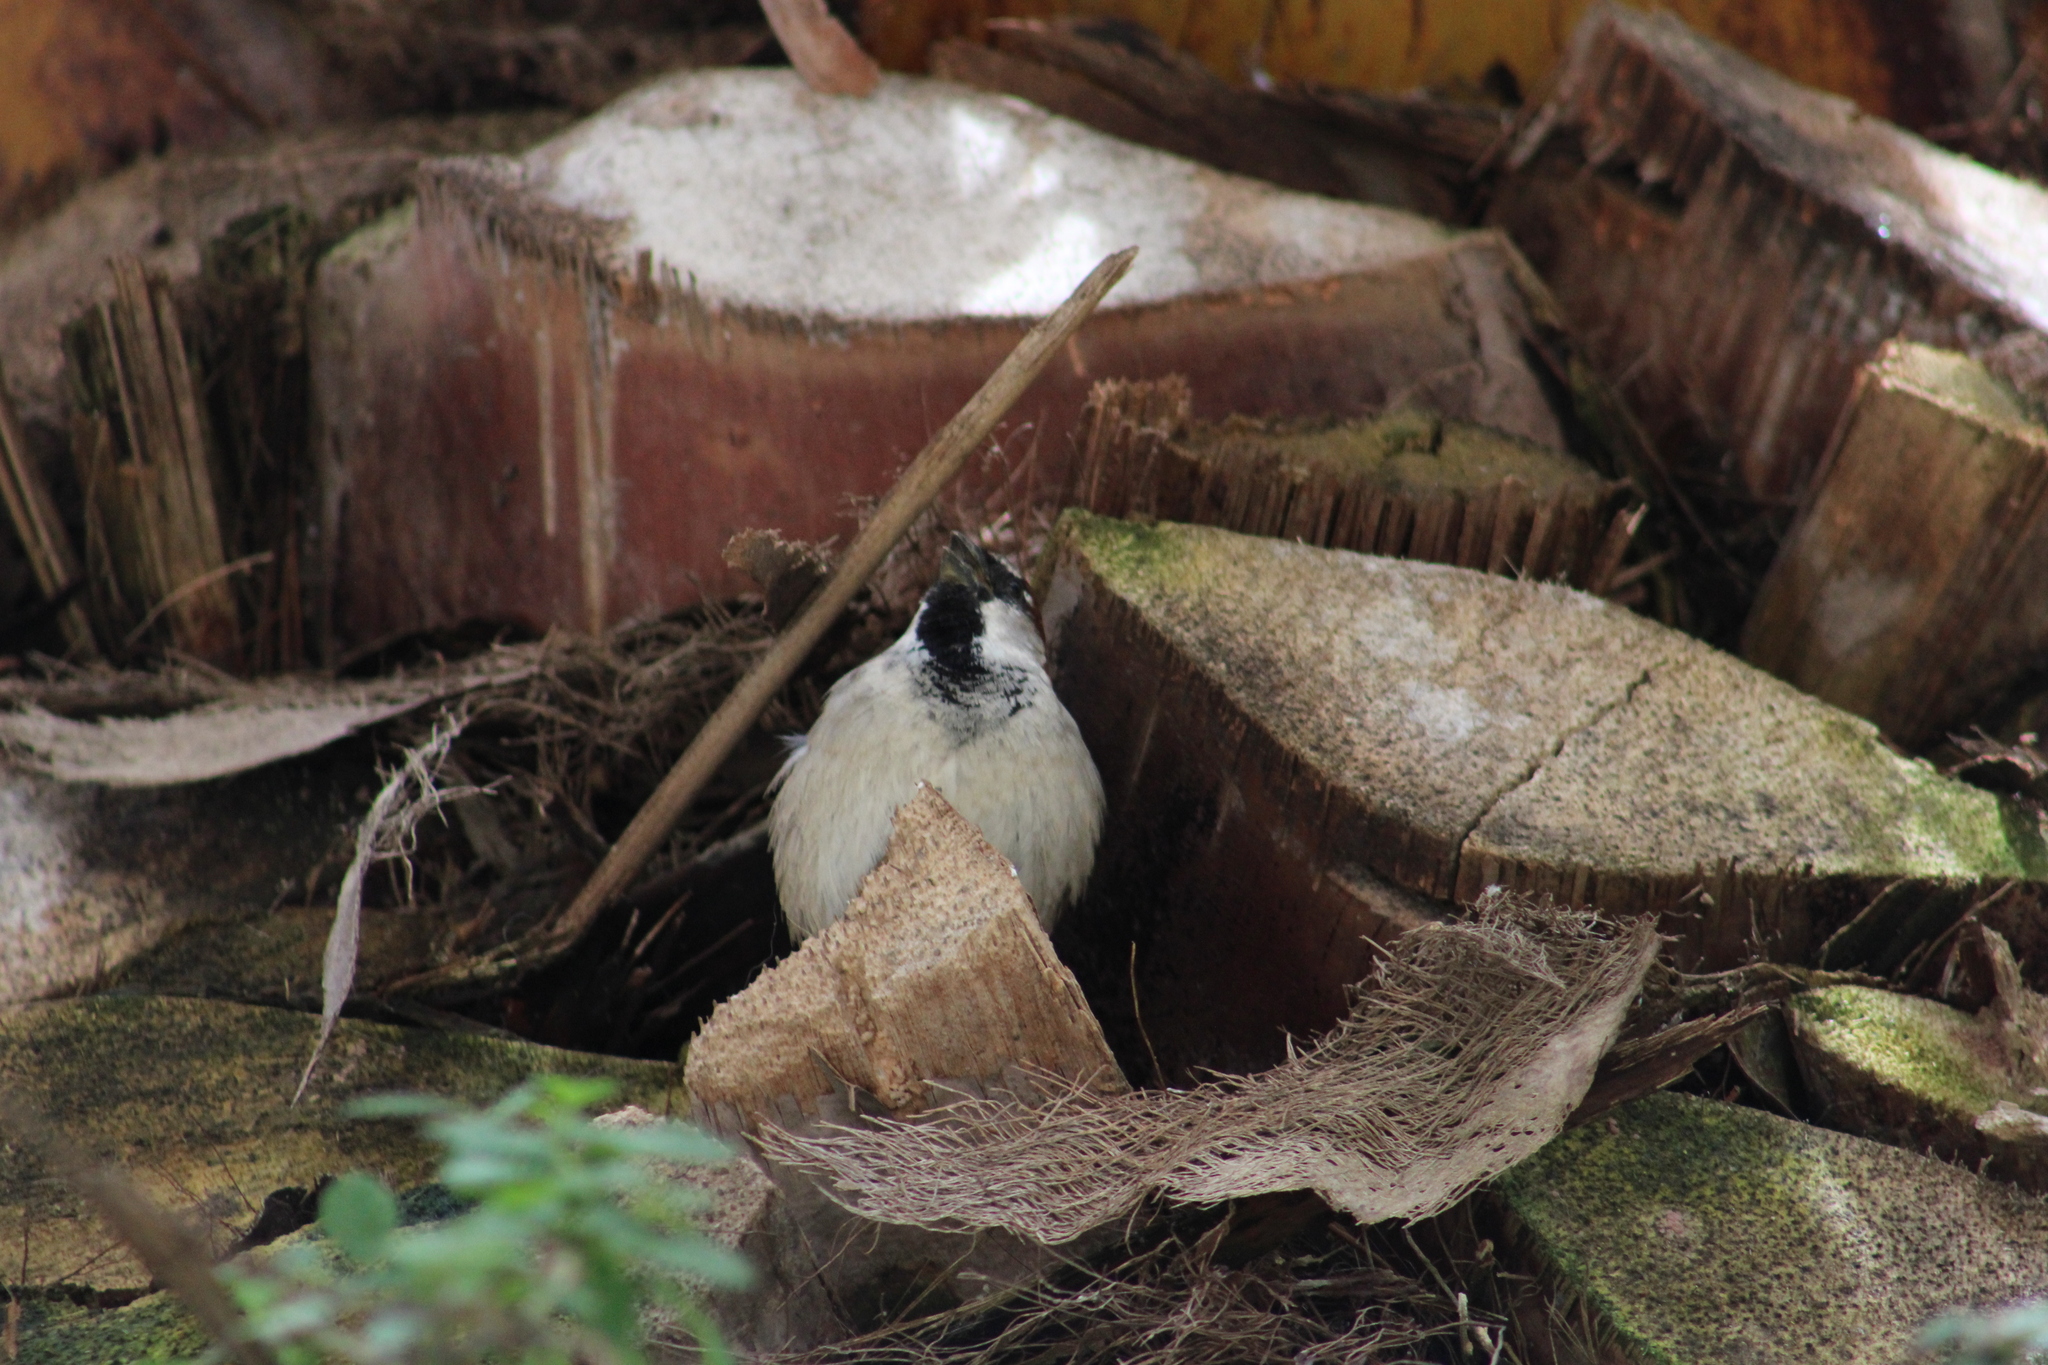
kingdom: Animalia
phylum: Chordata
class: Aves
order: Passeriformes
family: Passeridae
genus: Passer
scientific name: Passer domesticus
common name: House sparrow
